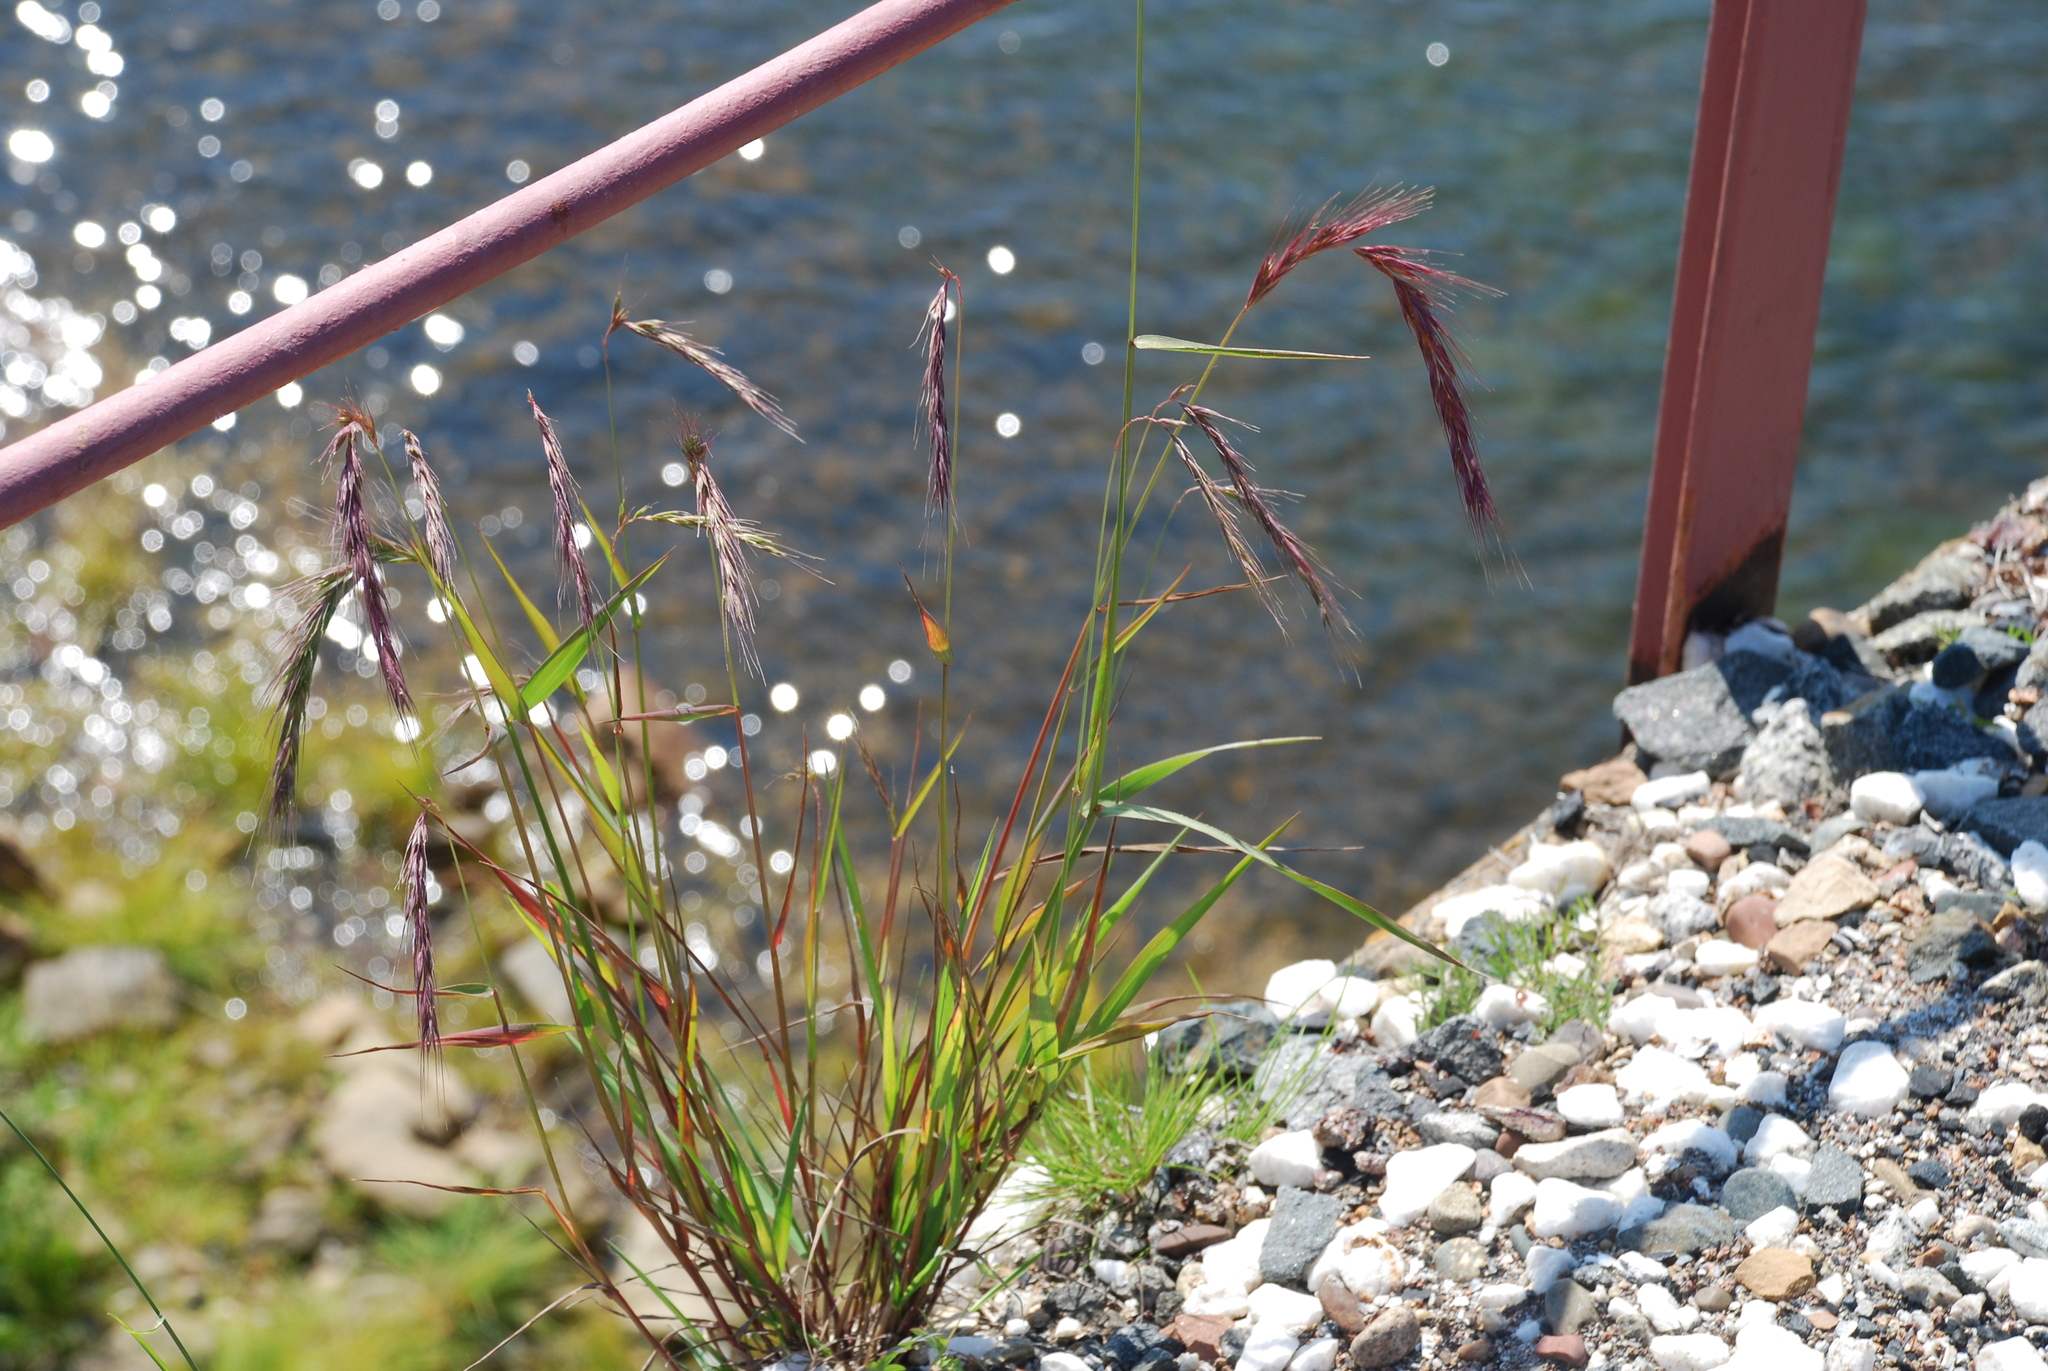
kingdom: Plantae
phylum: Tracheophyta
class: Liliopsida
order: Poales
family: Poaceae
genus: Elymus
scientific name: Elymus sibiricus
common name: Siberian wildrye
